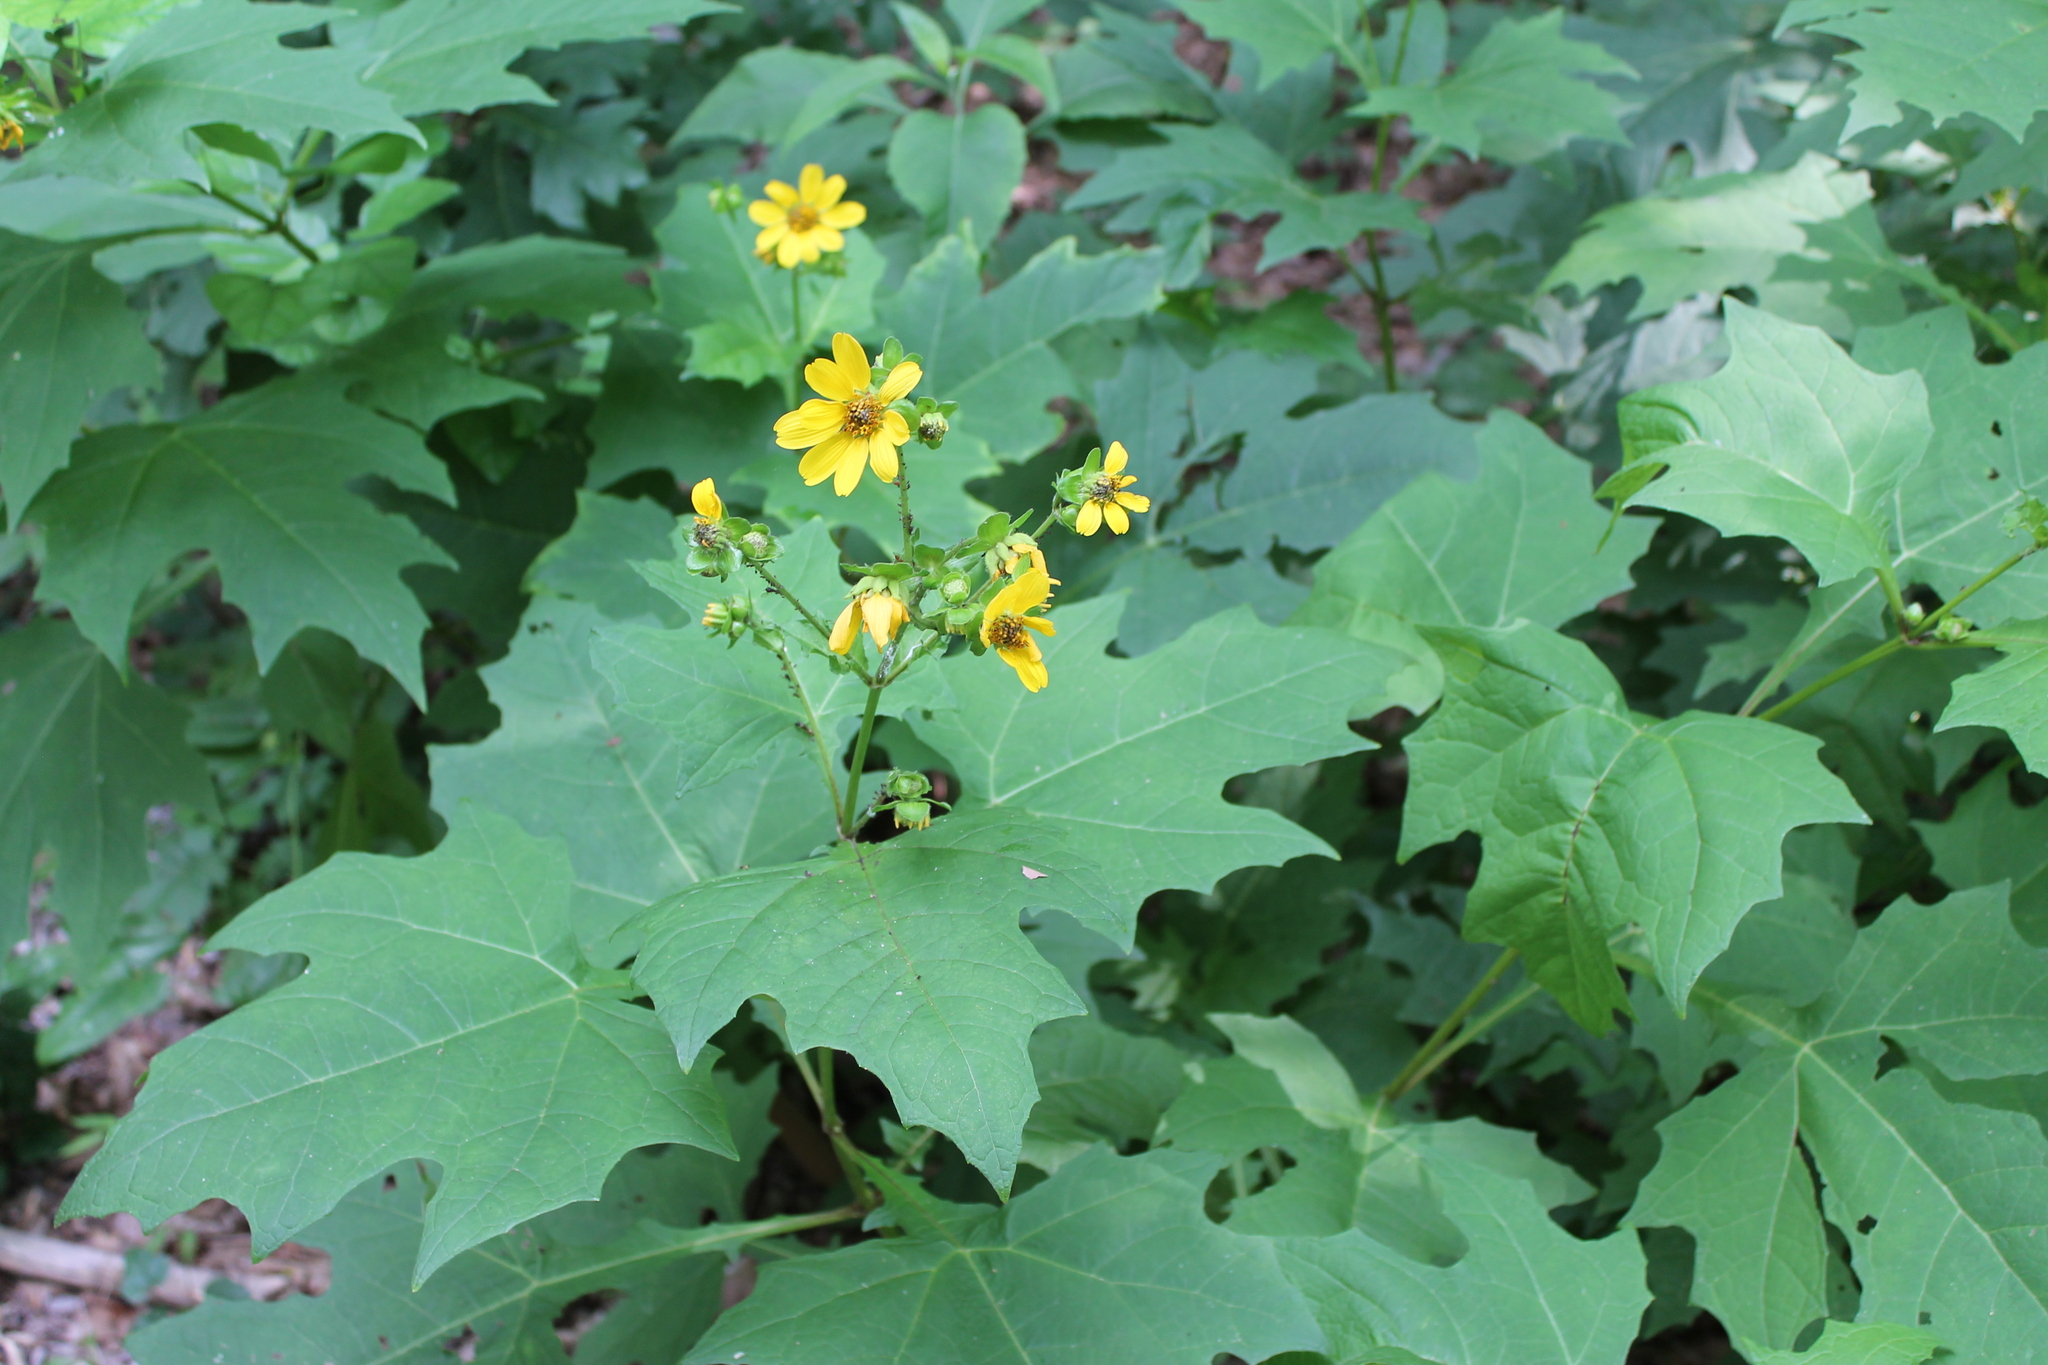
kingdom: Plantae
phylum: Tracheophyta
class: Magnoliopsida
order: Asterales
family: Asteraceae
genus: Smallanthus
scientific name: Smallanthus uvedalia
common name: Bear's-foot
